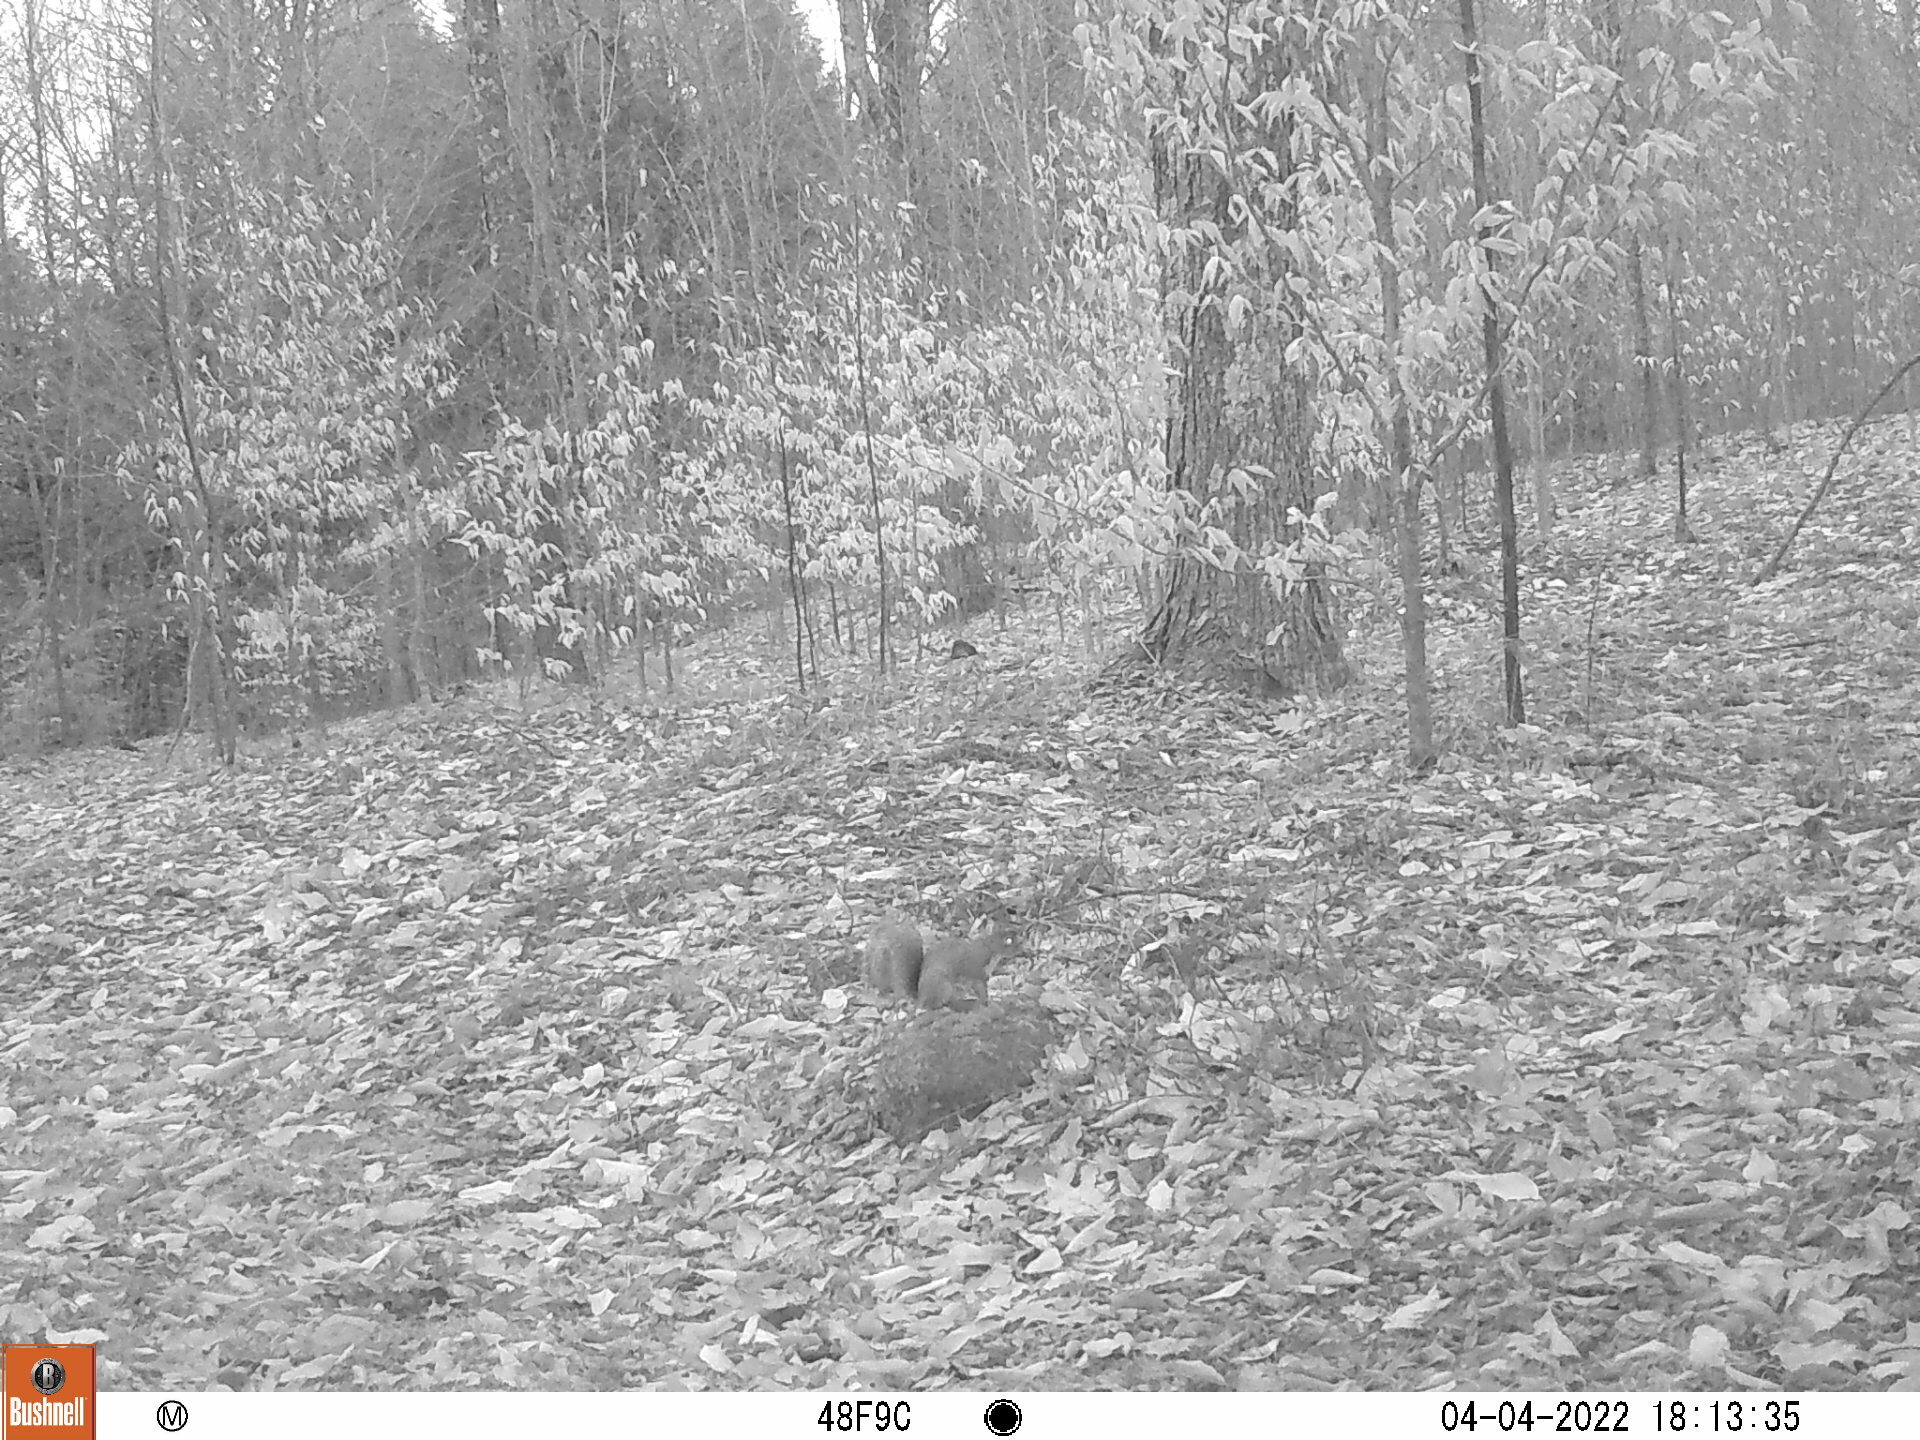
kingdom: Animalia
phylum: Chordata
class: Mammalia
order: Rodentia
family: Sciuridae
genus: Sciurus
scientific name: Sciurus carolinensis
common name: Eastern gray squirrel
